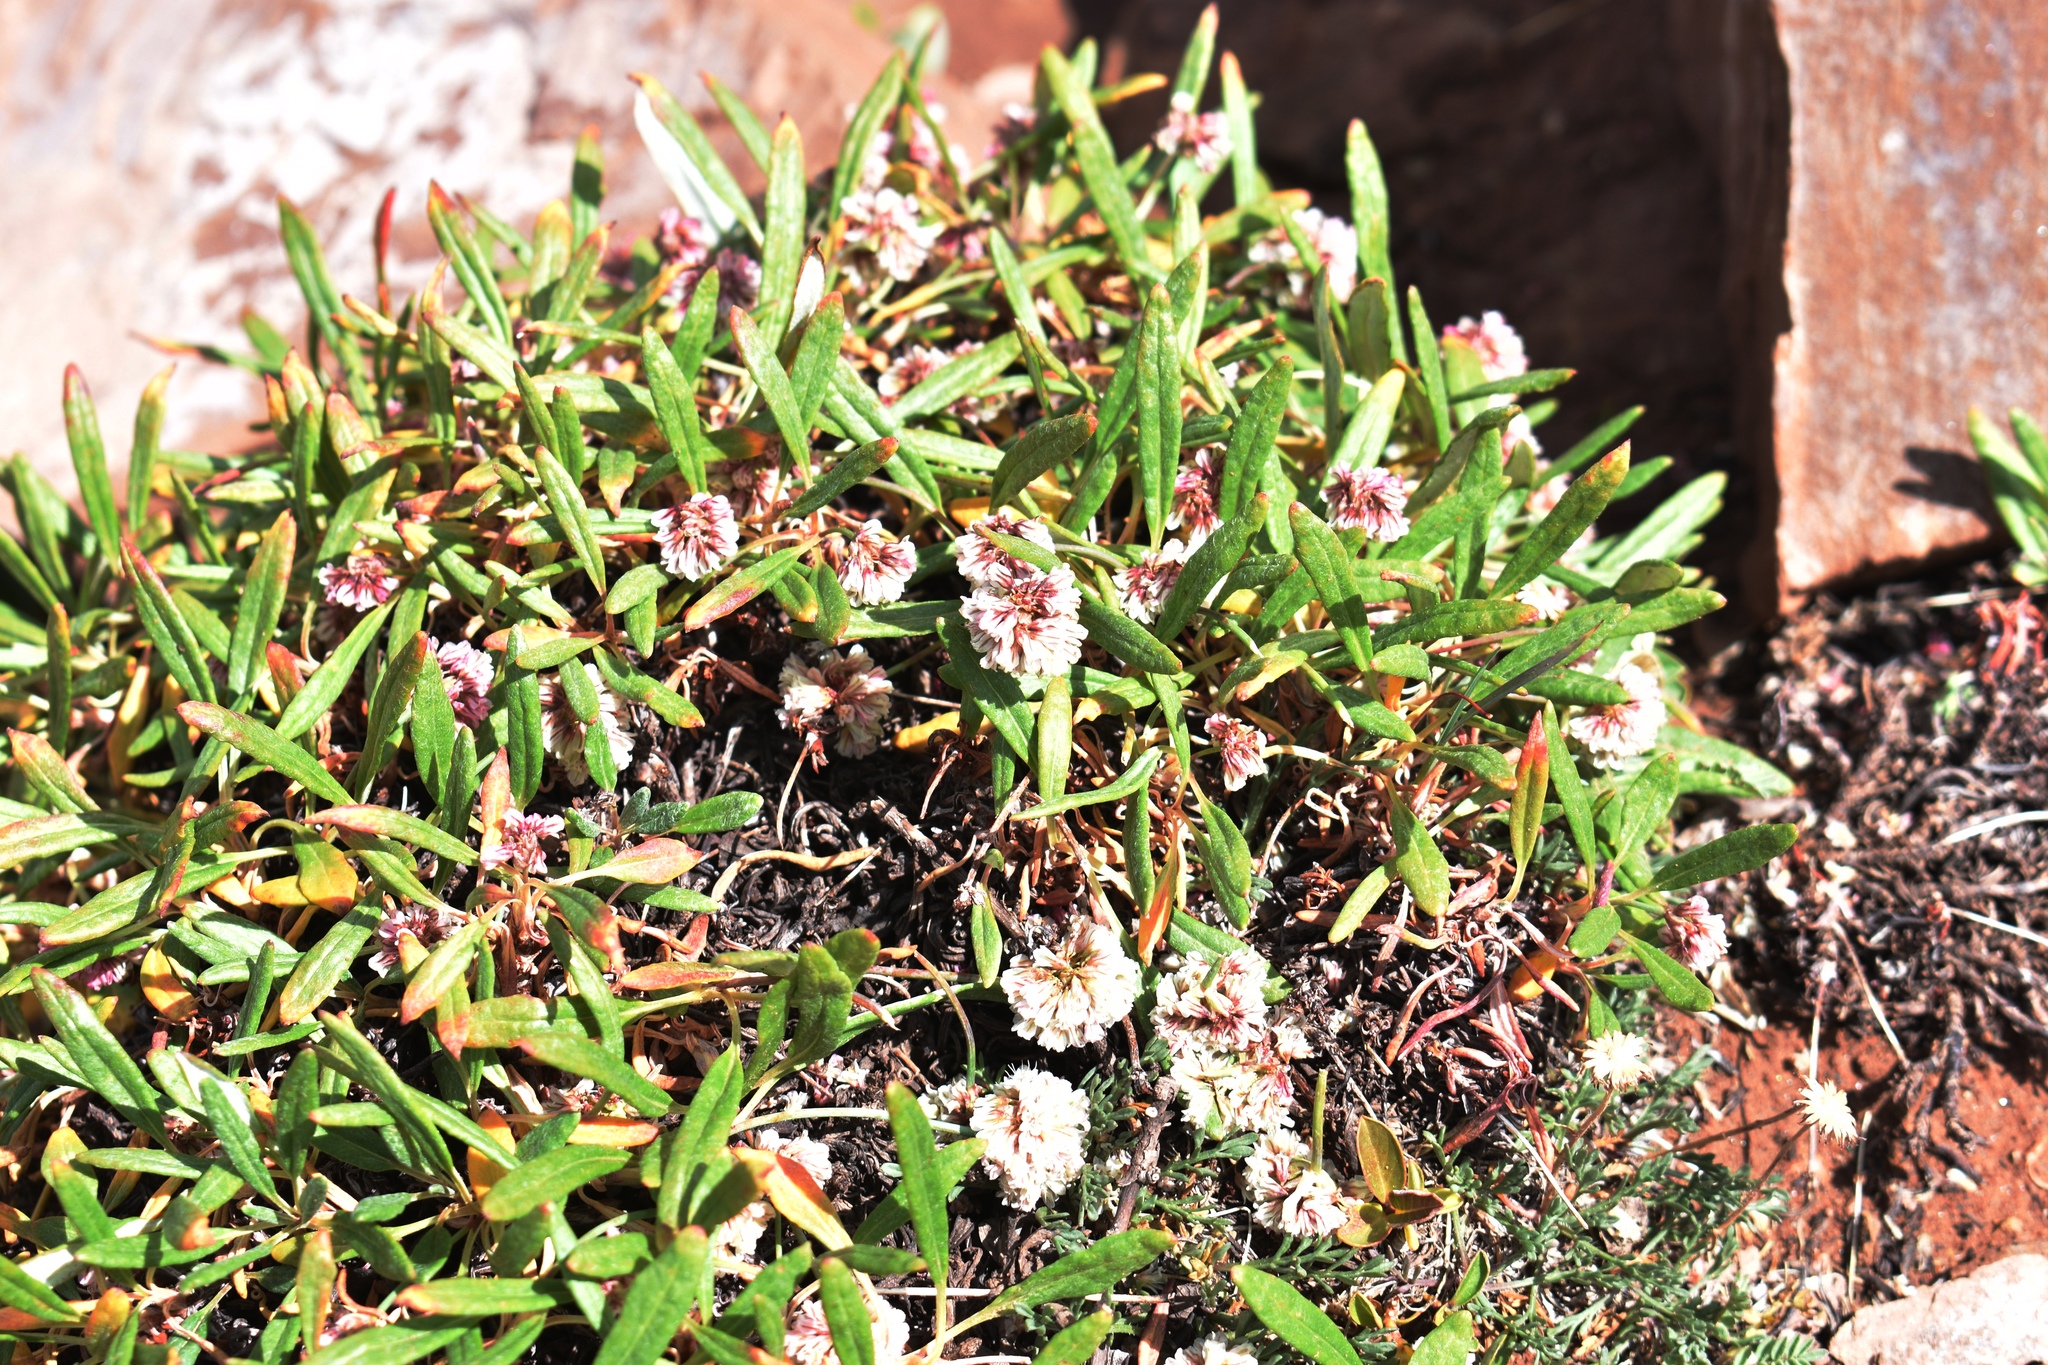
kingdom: Plantae
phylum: Tracheophyta
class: Magnoliopsida
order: Caryophyllales
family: Polygonaceae
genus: Eriogonum
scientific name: Eriogonum coloradense
